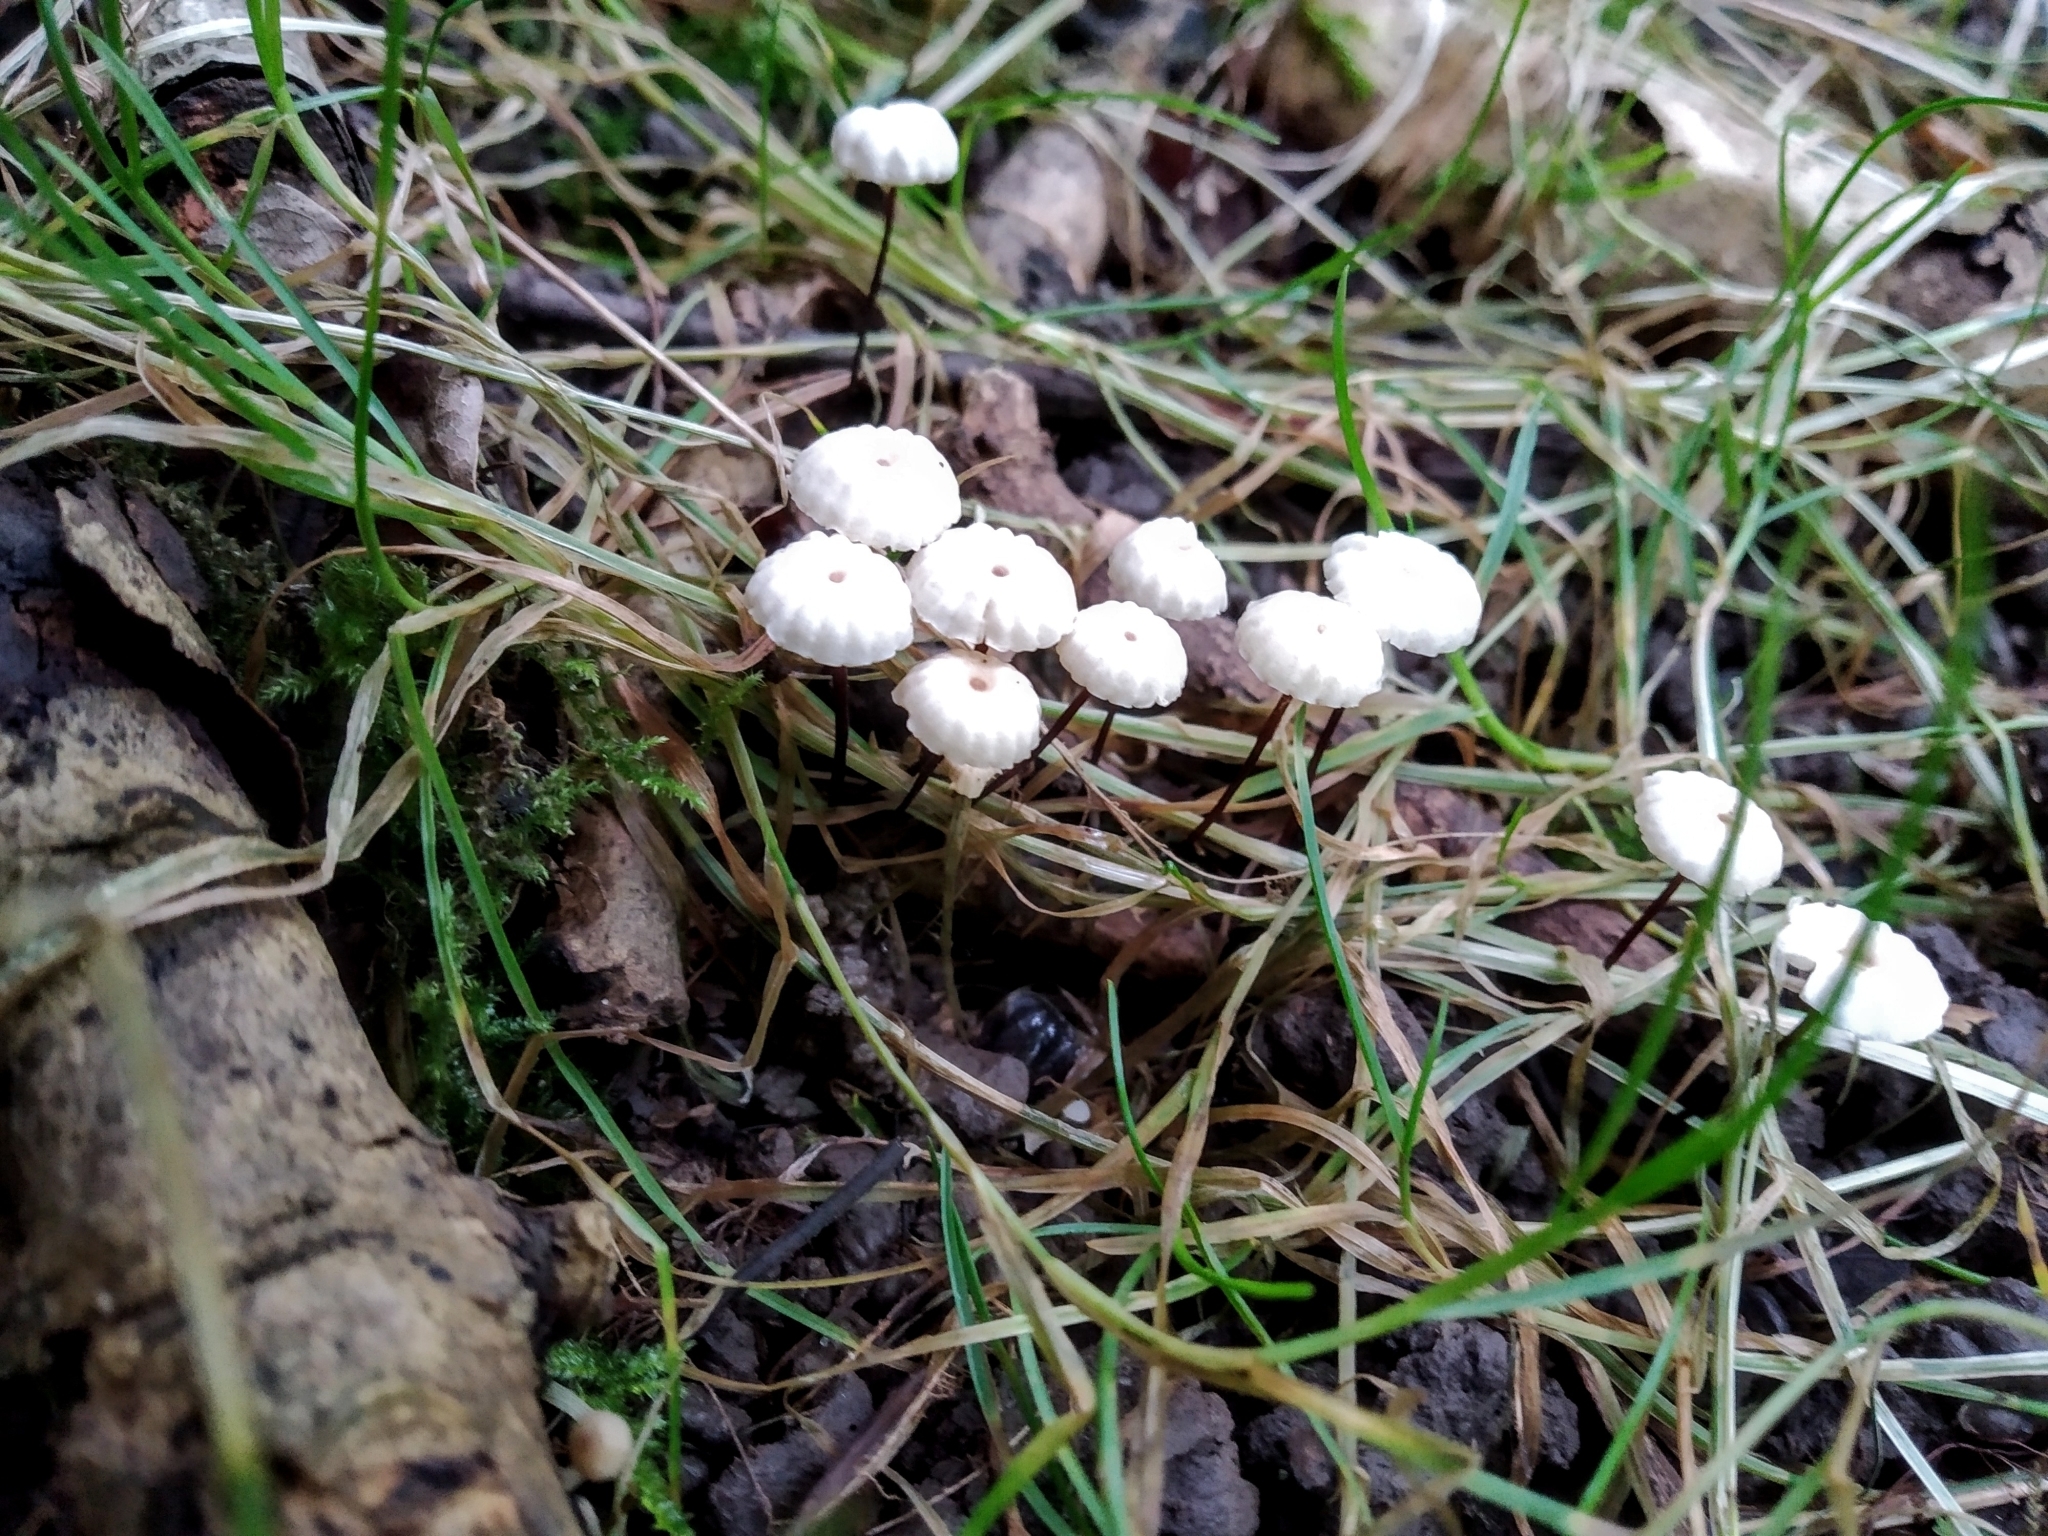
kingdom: Fungi
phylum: Basidiomycota
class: Agaricomycetes
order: Agaricales
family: Marasmiaceae
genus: Marasmius
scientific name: Marasmius rotula
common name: Collared parachute
